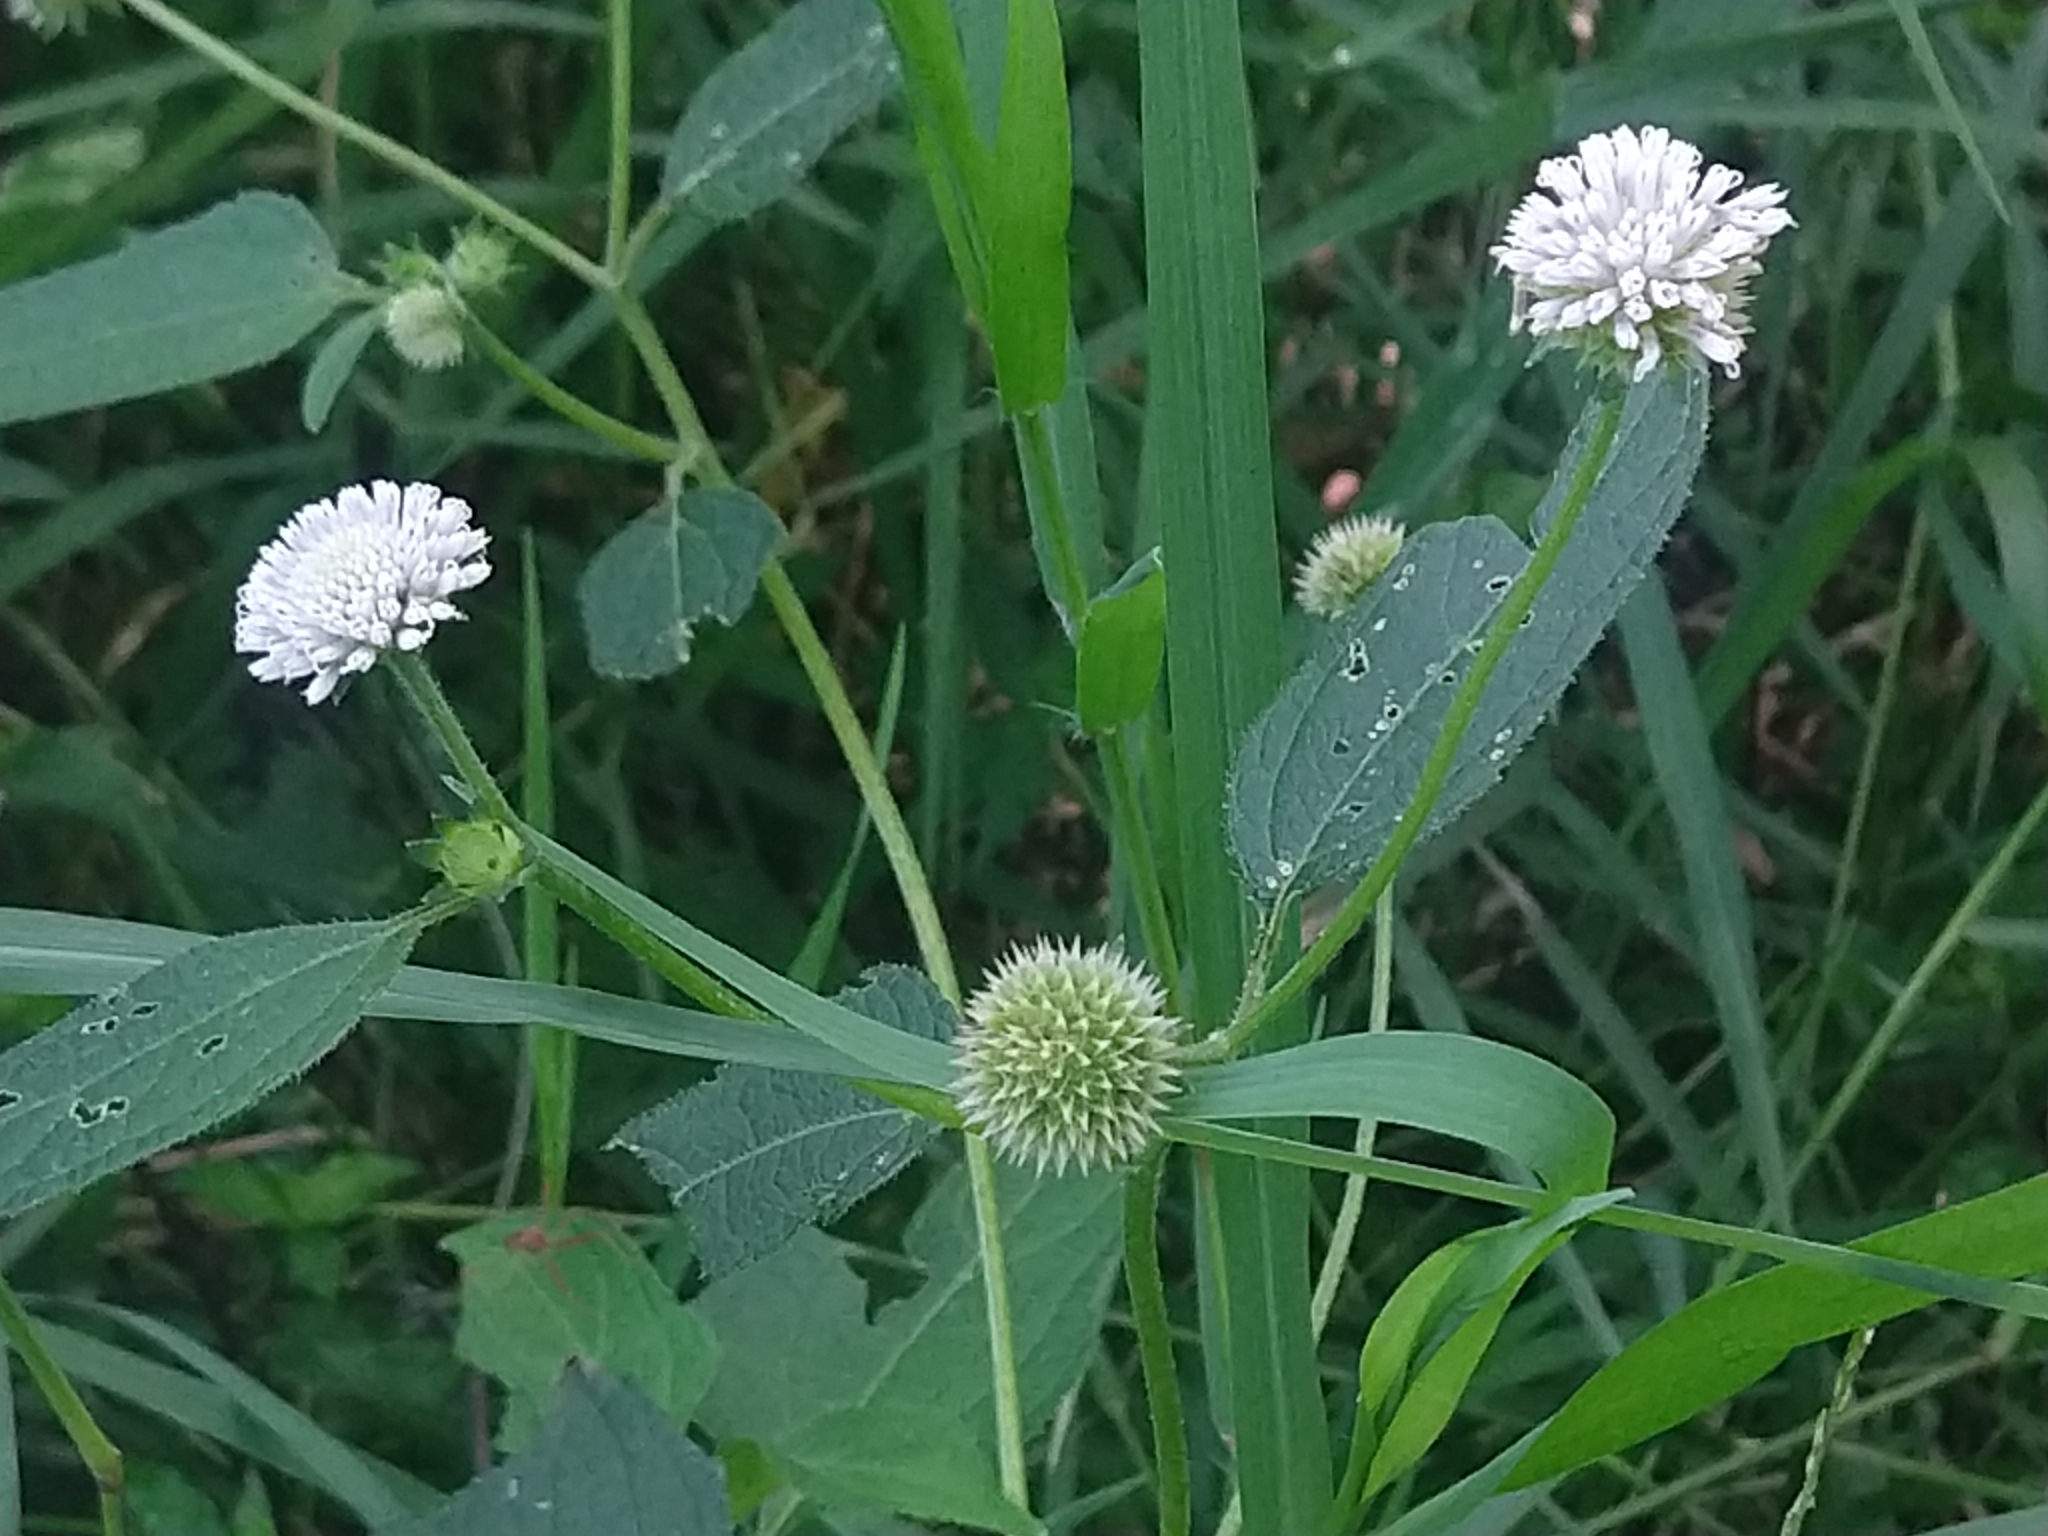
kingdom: Plantae
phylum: Tracheophyta
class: Magnoliopsida
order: Asterales
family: Asteraceae
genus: Melanthera
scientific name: Melanthera angustifolia
